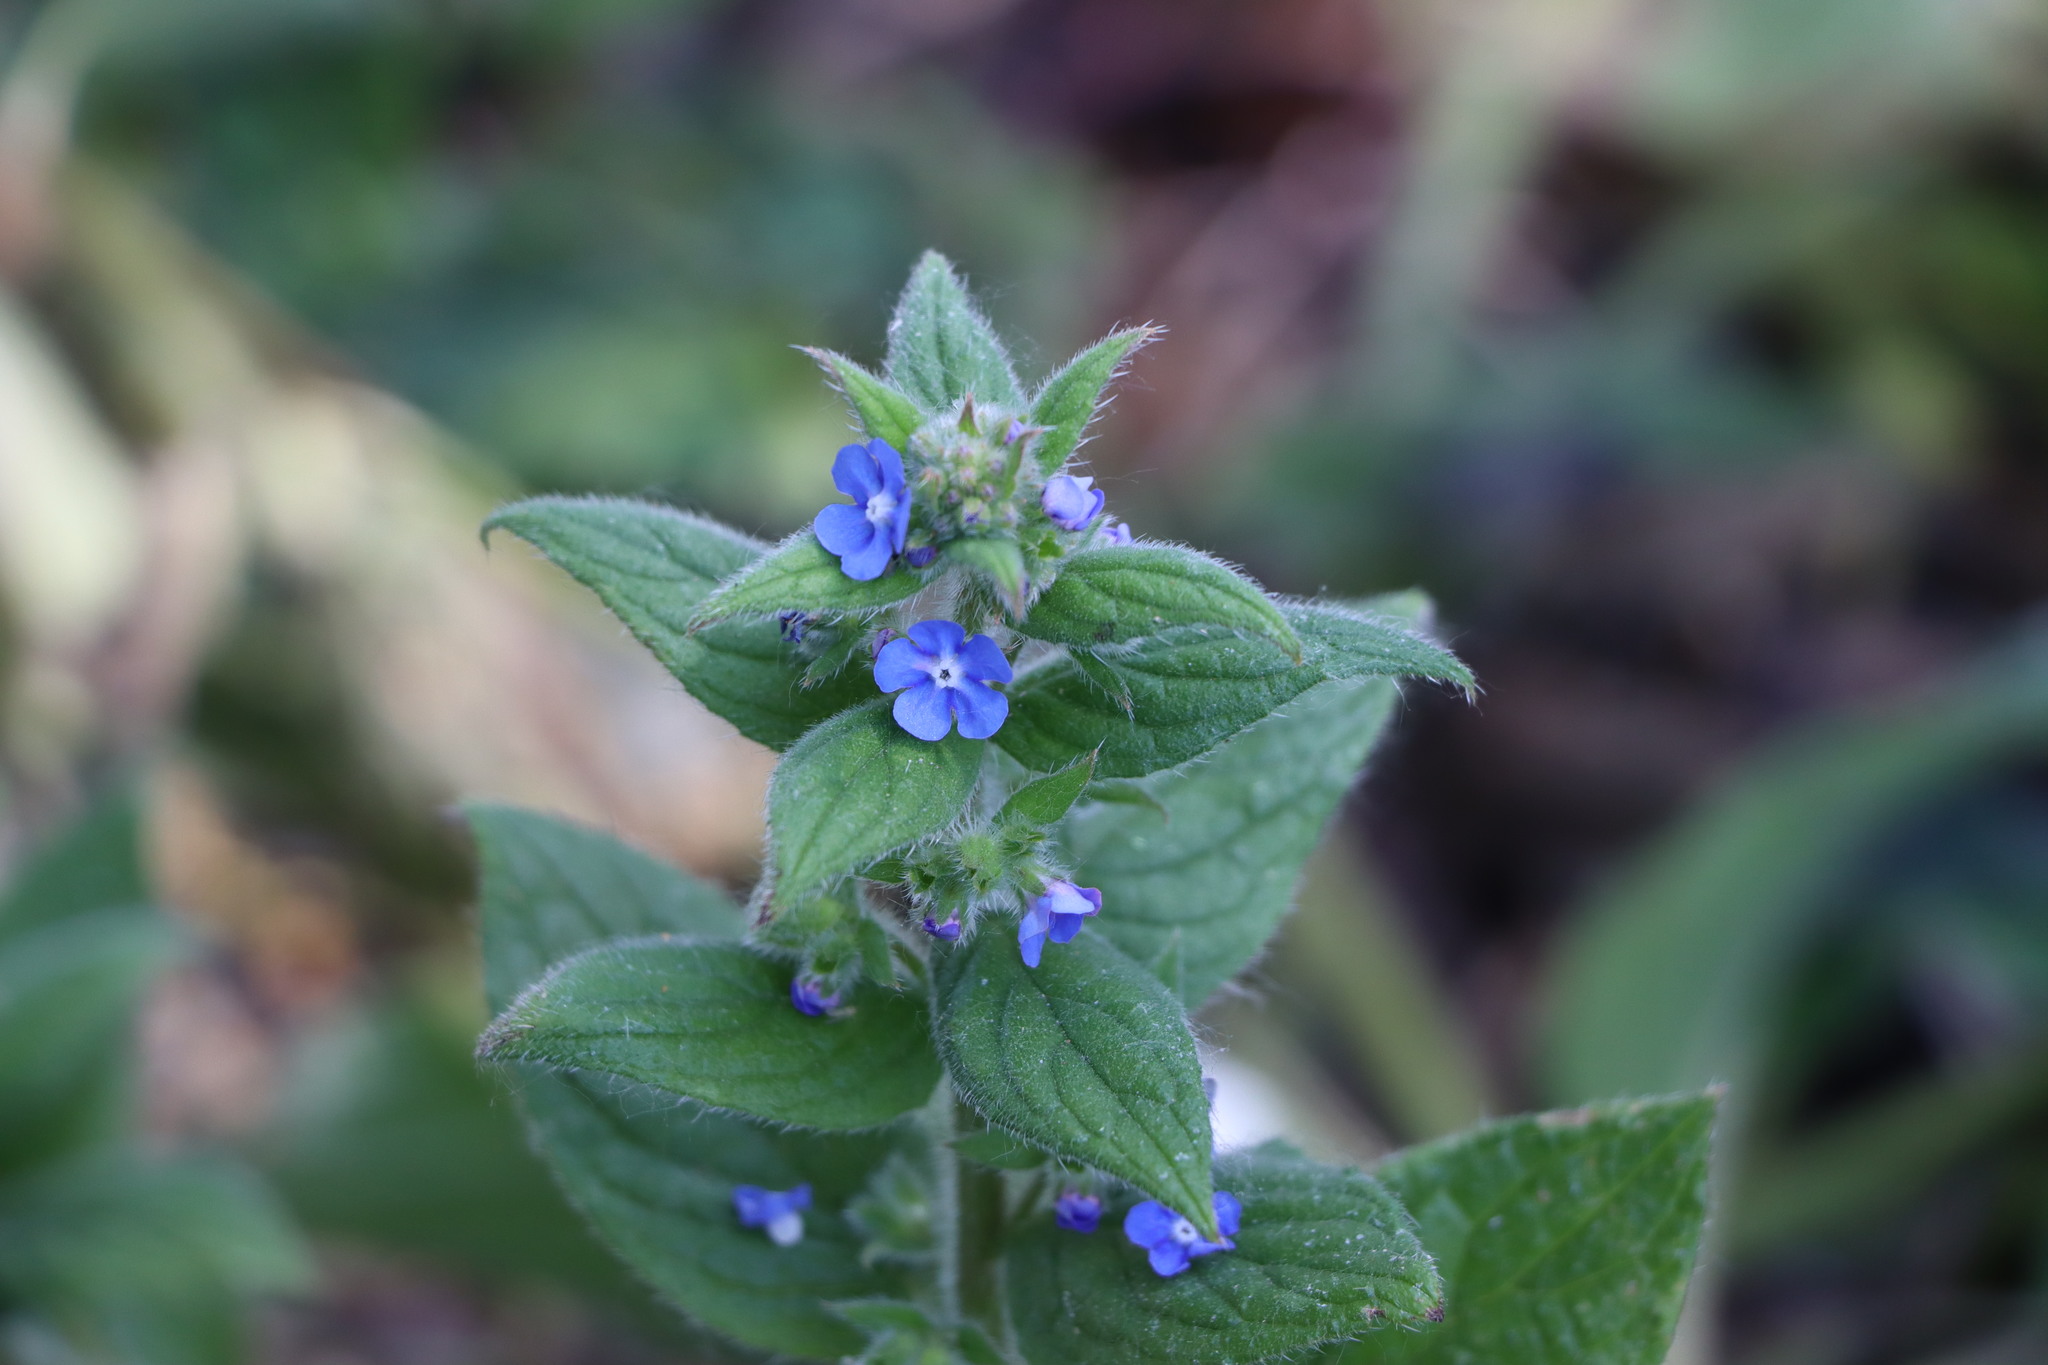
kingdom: Plantae
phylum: Tracheophyta
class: Magnoliopsida
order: Boraginales
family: Boraginaceae
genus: Pentaglottis
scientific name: Pentaglottis sempervirens
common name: Green alkanet
